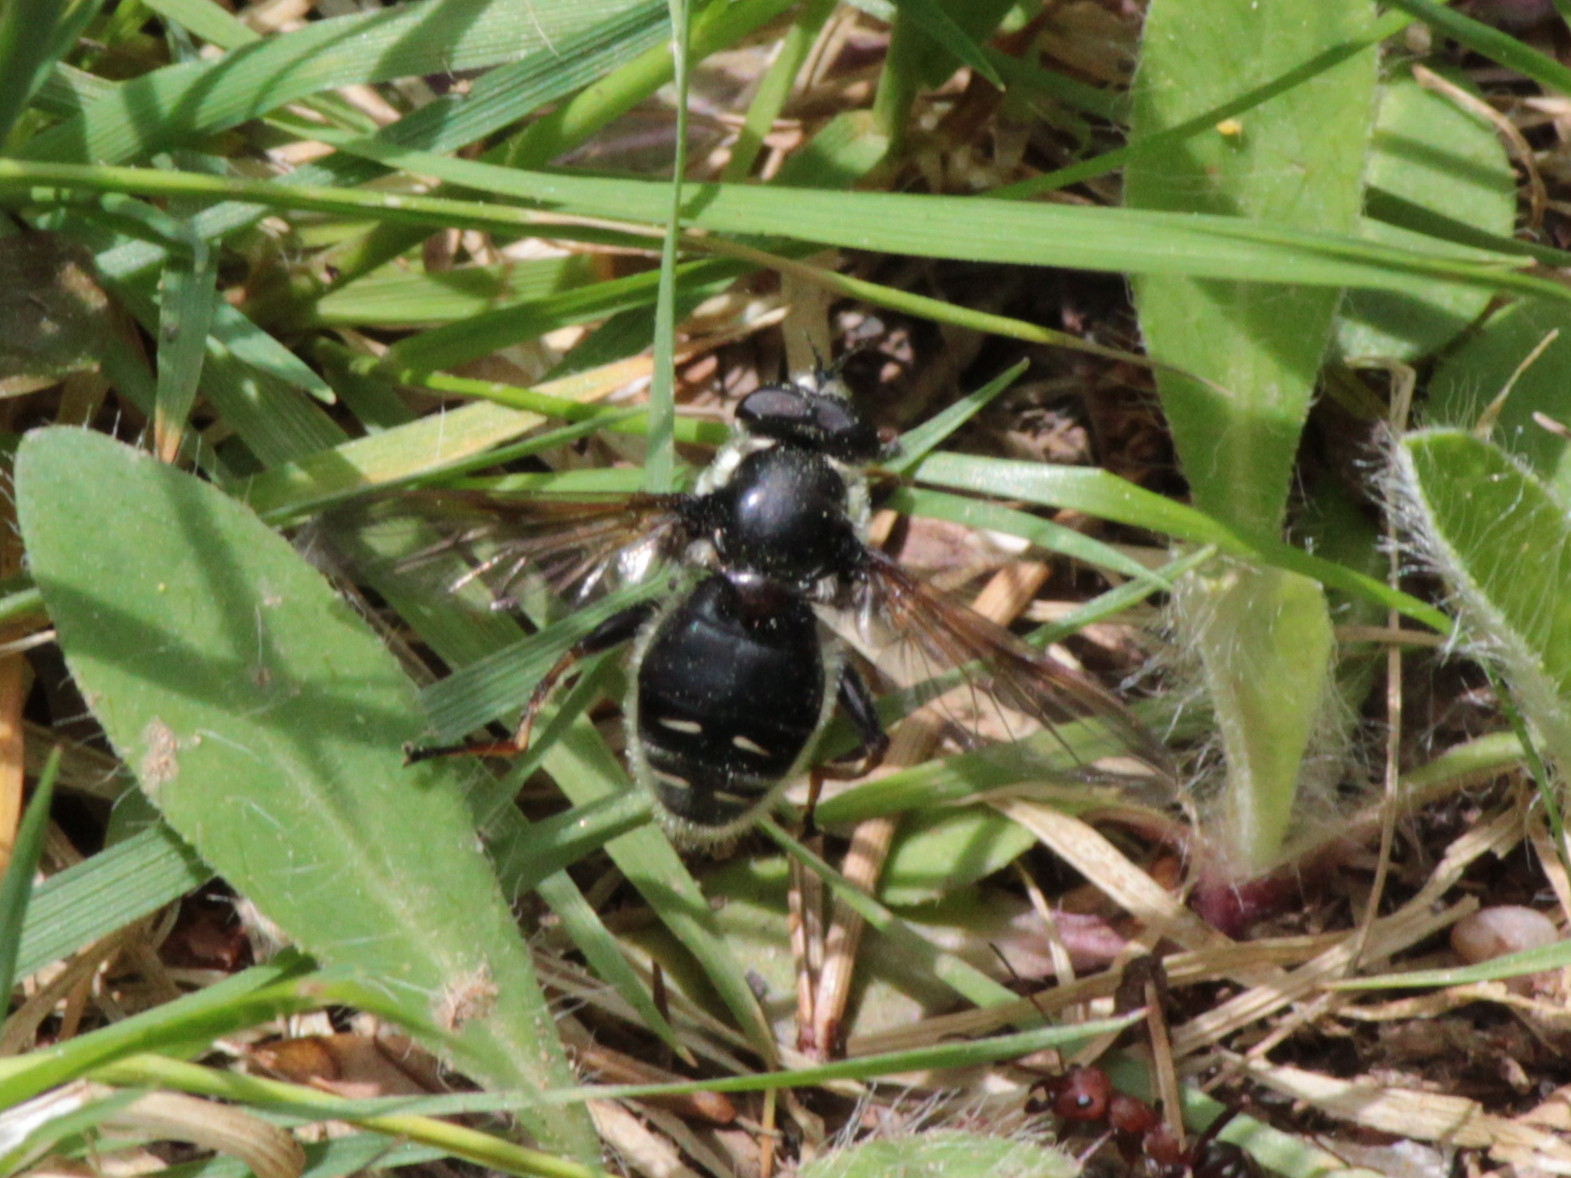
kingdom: Animalia
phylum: Arthropoda
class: Insecta
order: Diptera
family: Syrphidae
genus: Sericomyia
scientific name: Sericomyia militaris
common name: Narrow-banded pond fly
